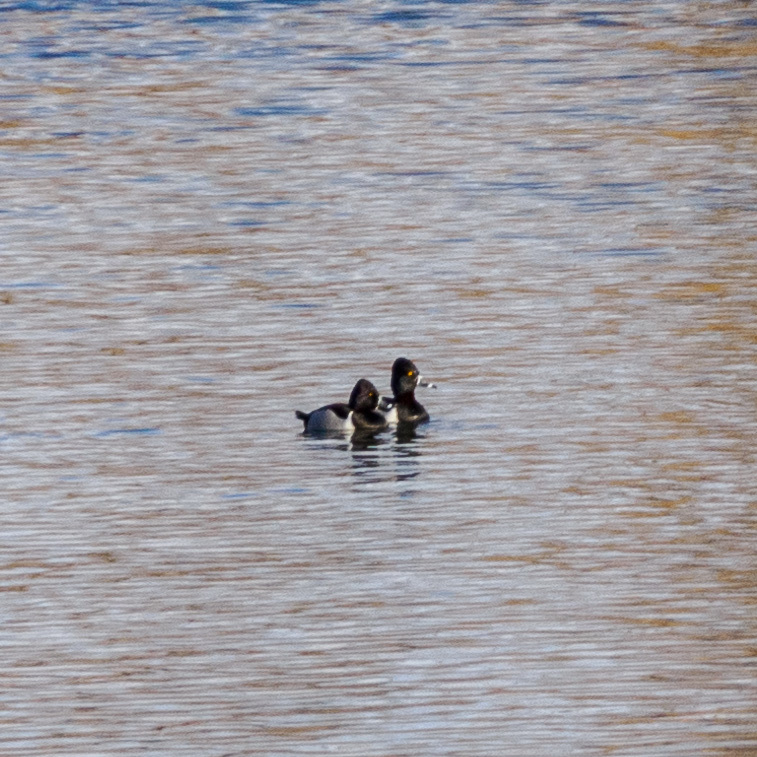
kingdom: Animalia
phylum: Chordata
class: Aves
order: Anseriformes
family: Anatidae
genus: Aythya
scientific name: Aythya collaris
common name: Ring-necked duck
